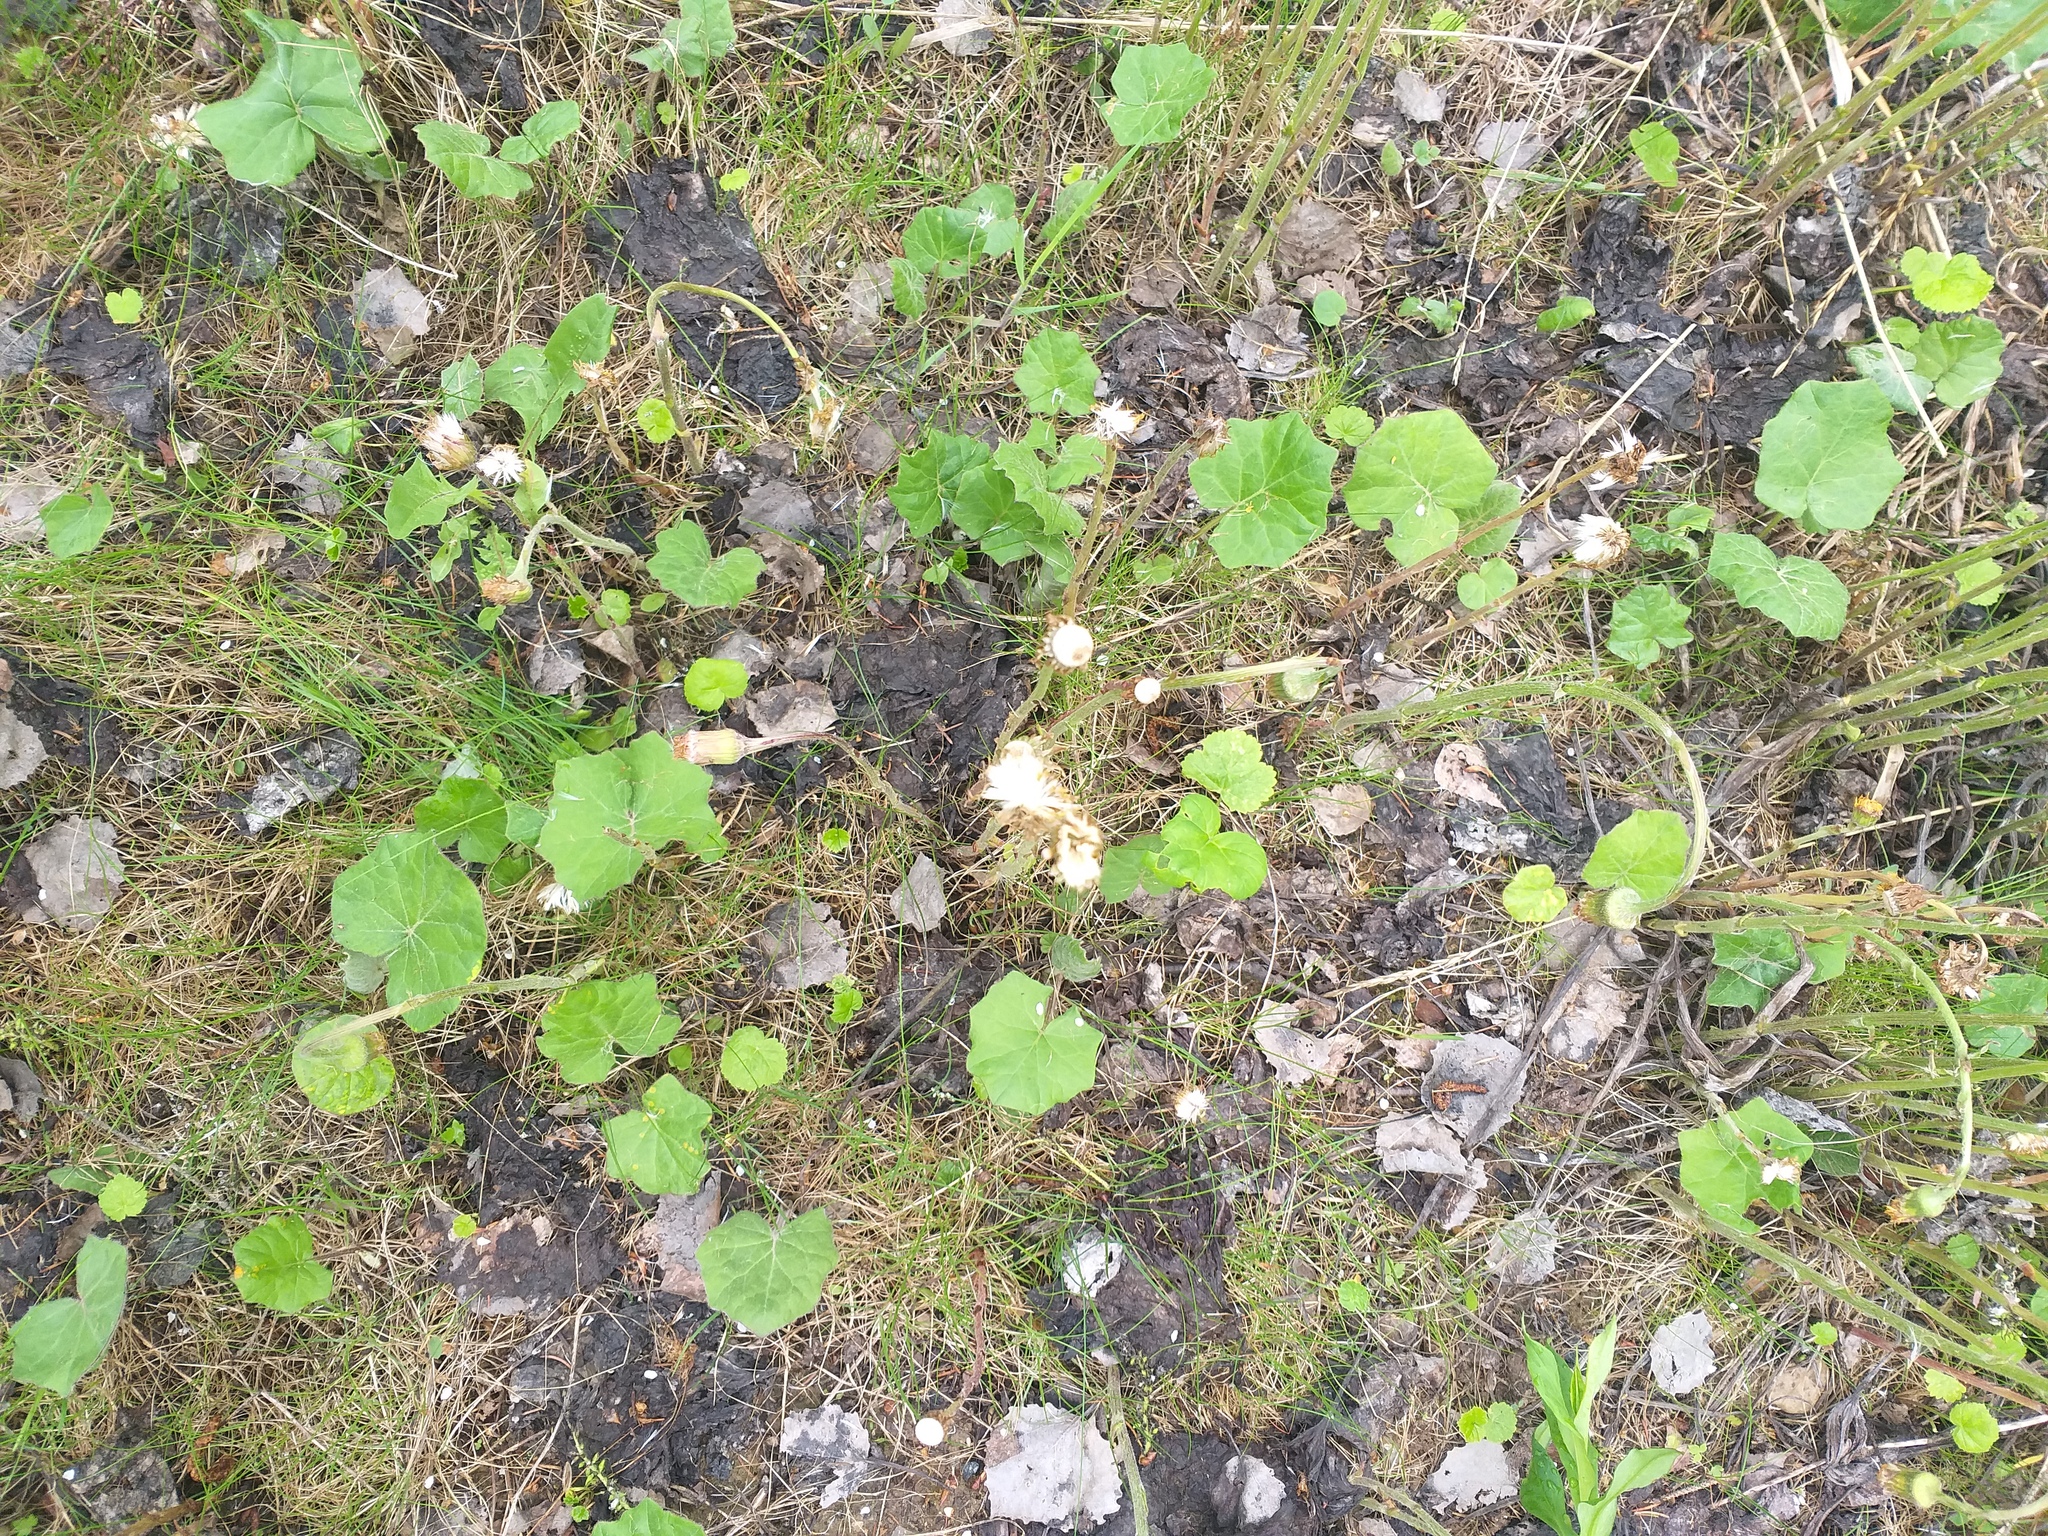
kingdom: Plantae
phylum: Tracheophyta
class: Magnoliopsida
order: Asterales
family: Asteraceae
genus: Tussilago
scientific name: Tussilago farfara
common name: Coltsfoot
